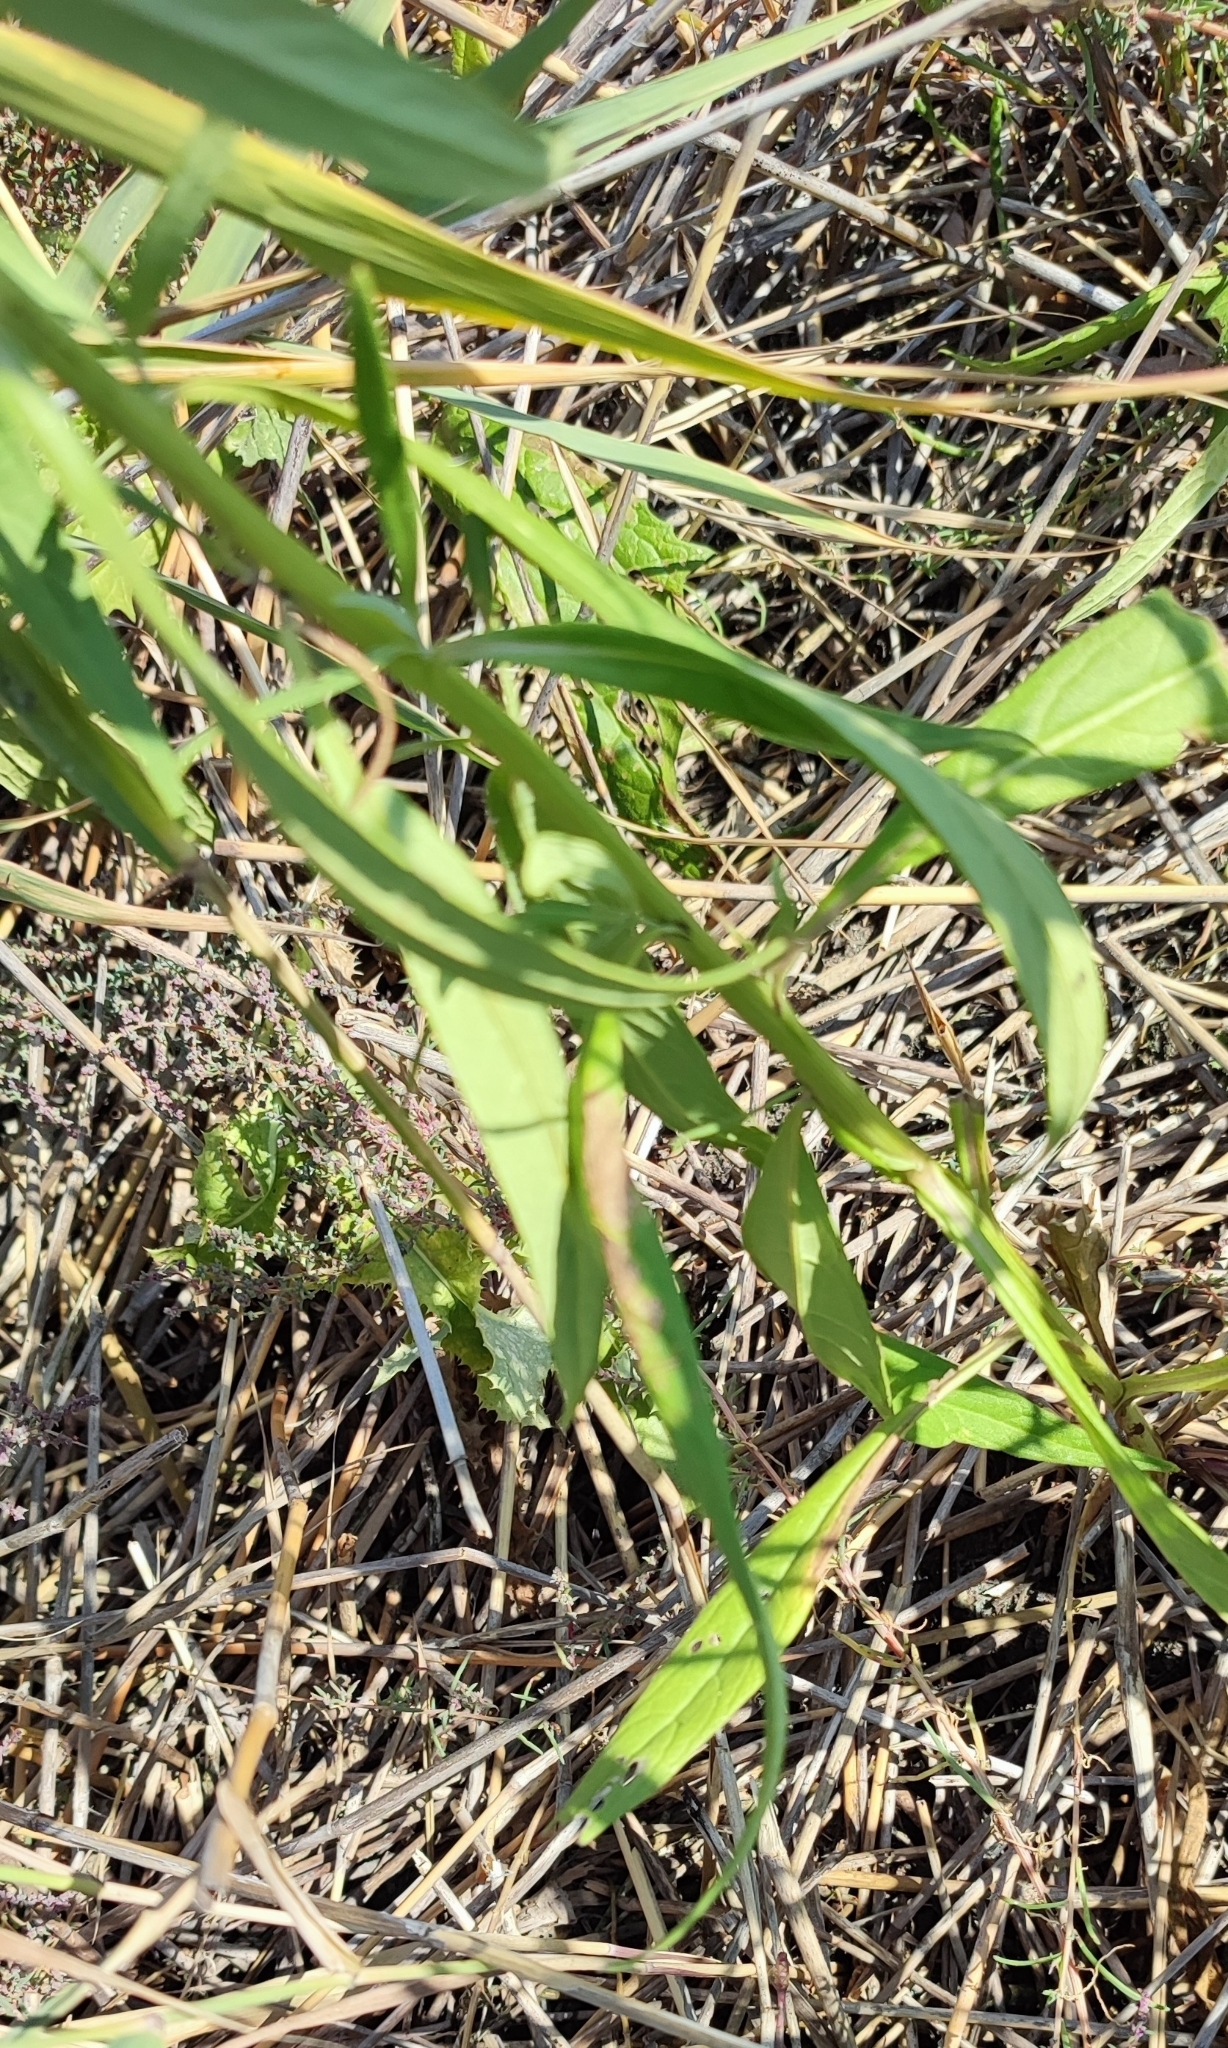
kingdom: Plantae
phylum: Tracheophyta
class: Magnoliopsida
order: Asterales
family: Asteraceae
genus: Saussurea
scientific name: Saussurea amara
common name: Alberta sawwort
